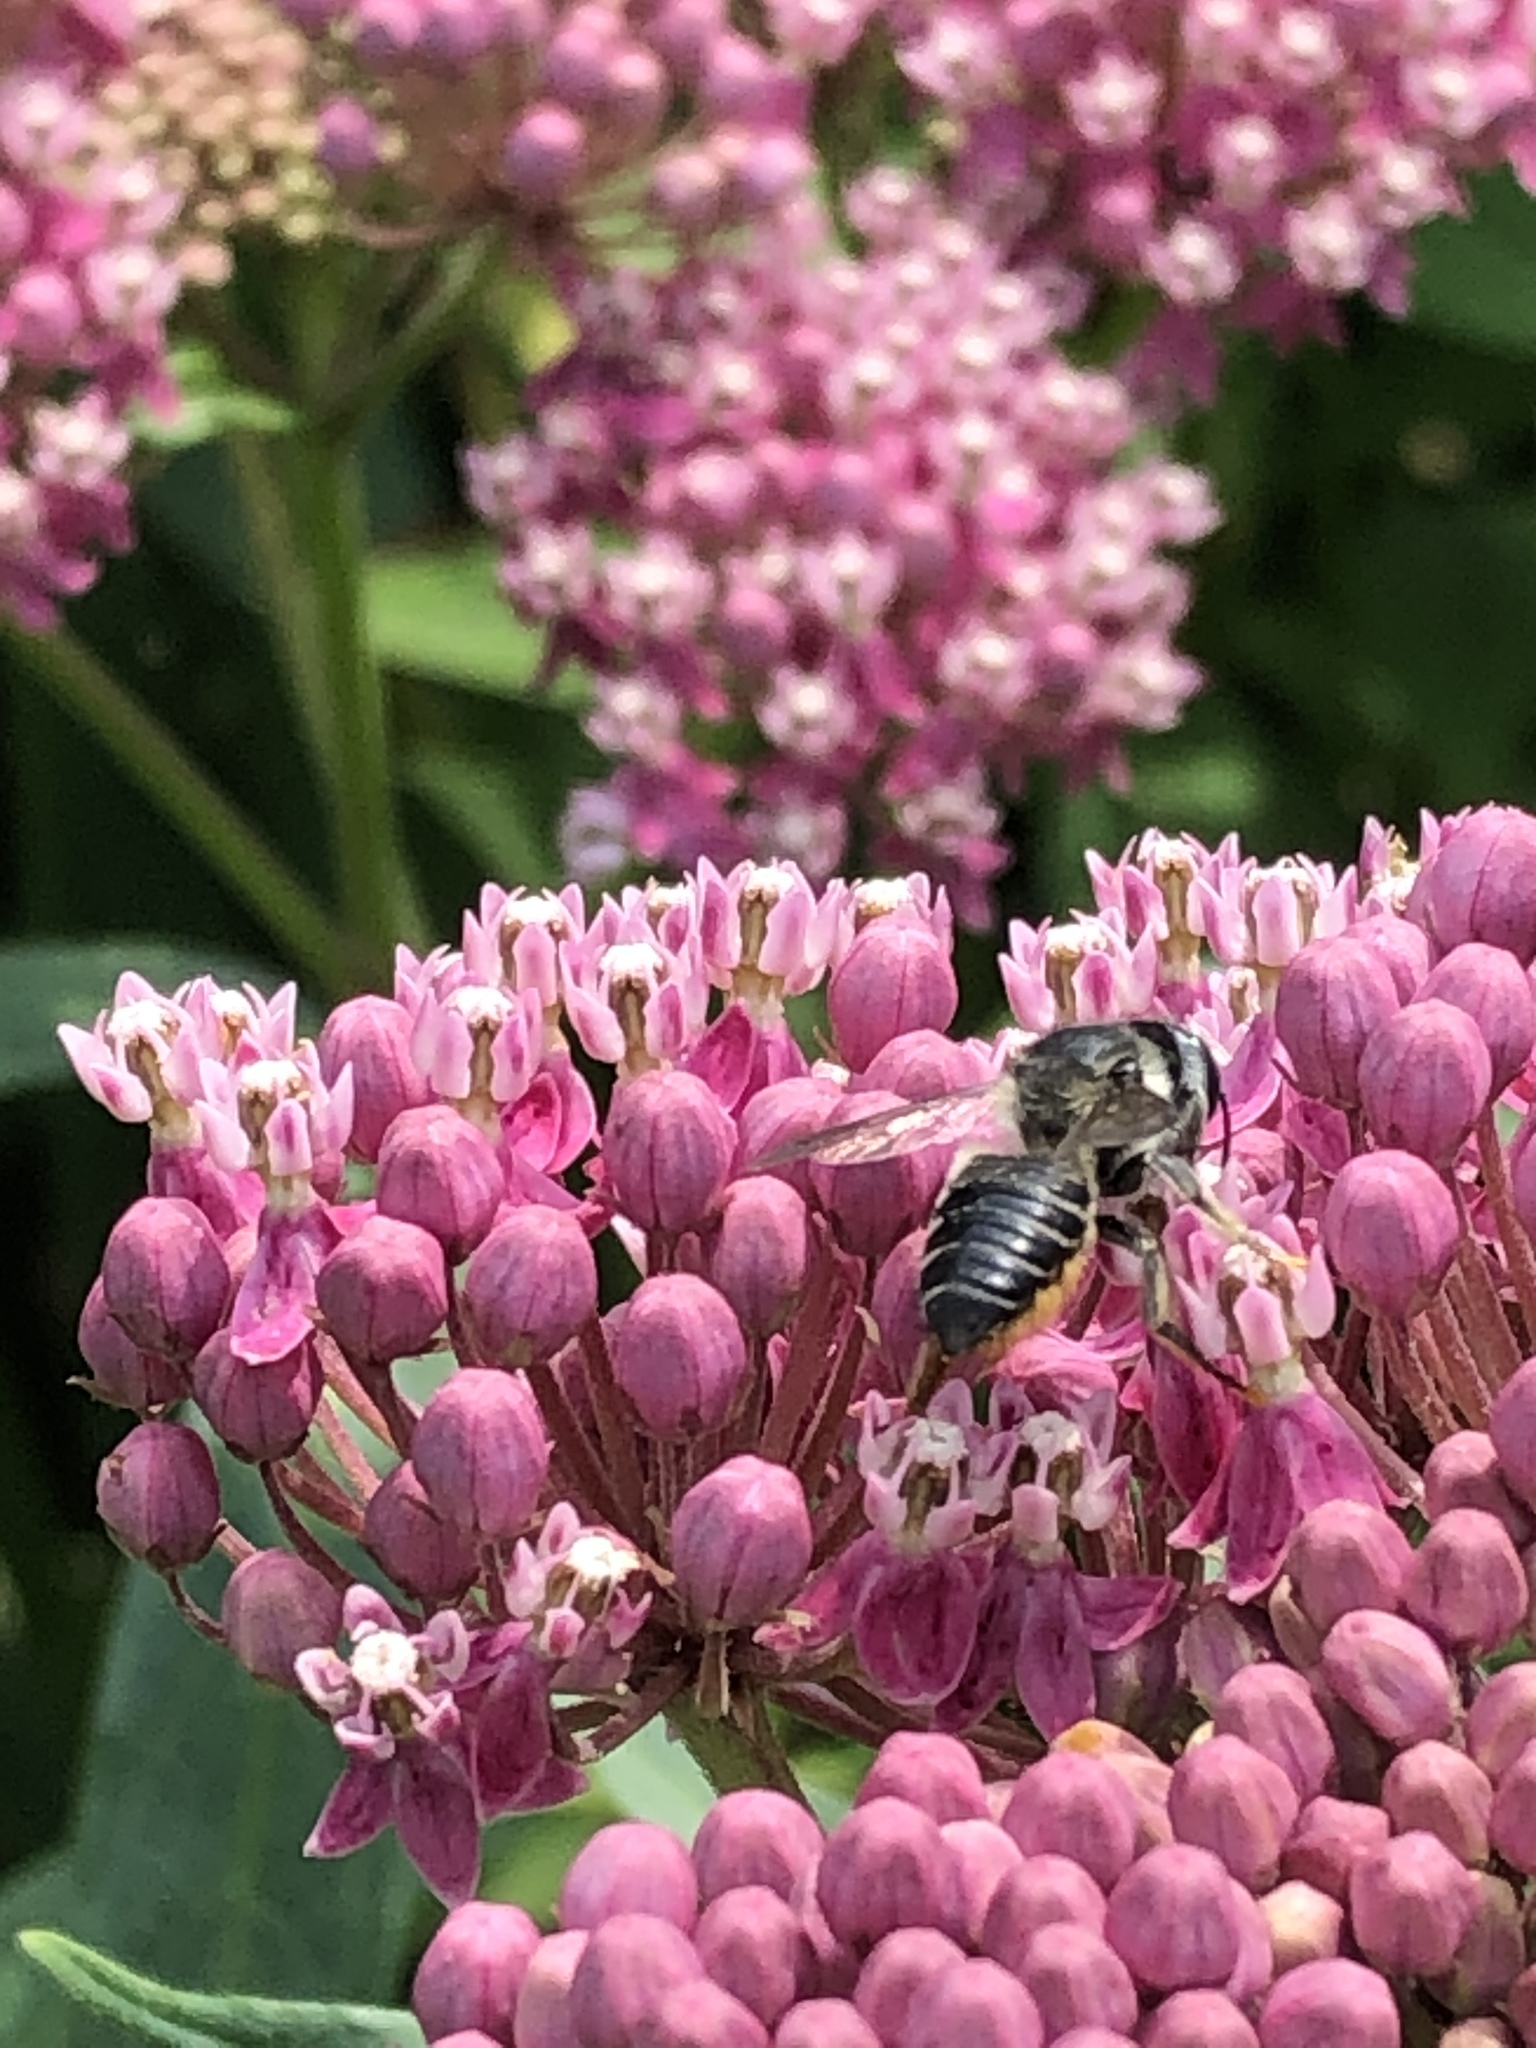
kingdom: Animalia
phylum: Arthropoda
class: Insecta
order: Hymenoptera
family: Megachilidae
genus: Megachile
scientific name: Megachile mendica
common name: Flat-tailed leafcutter
